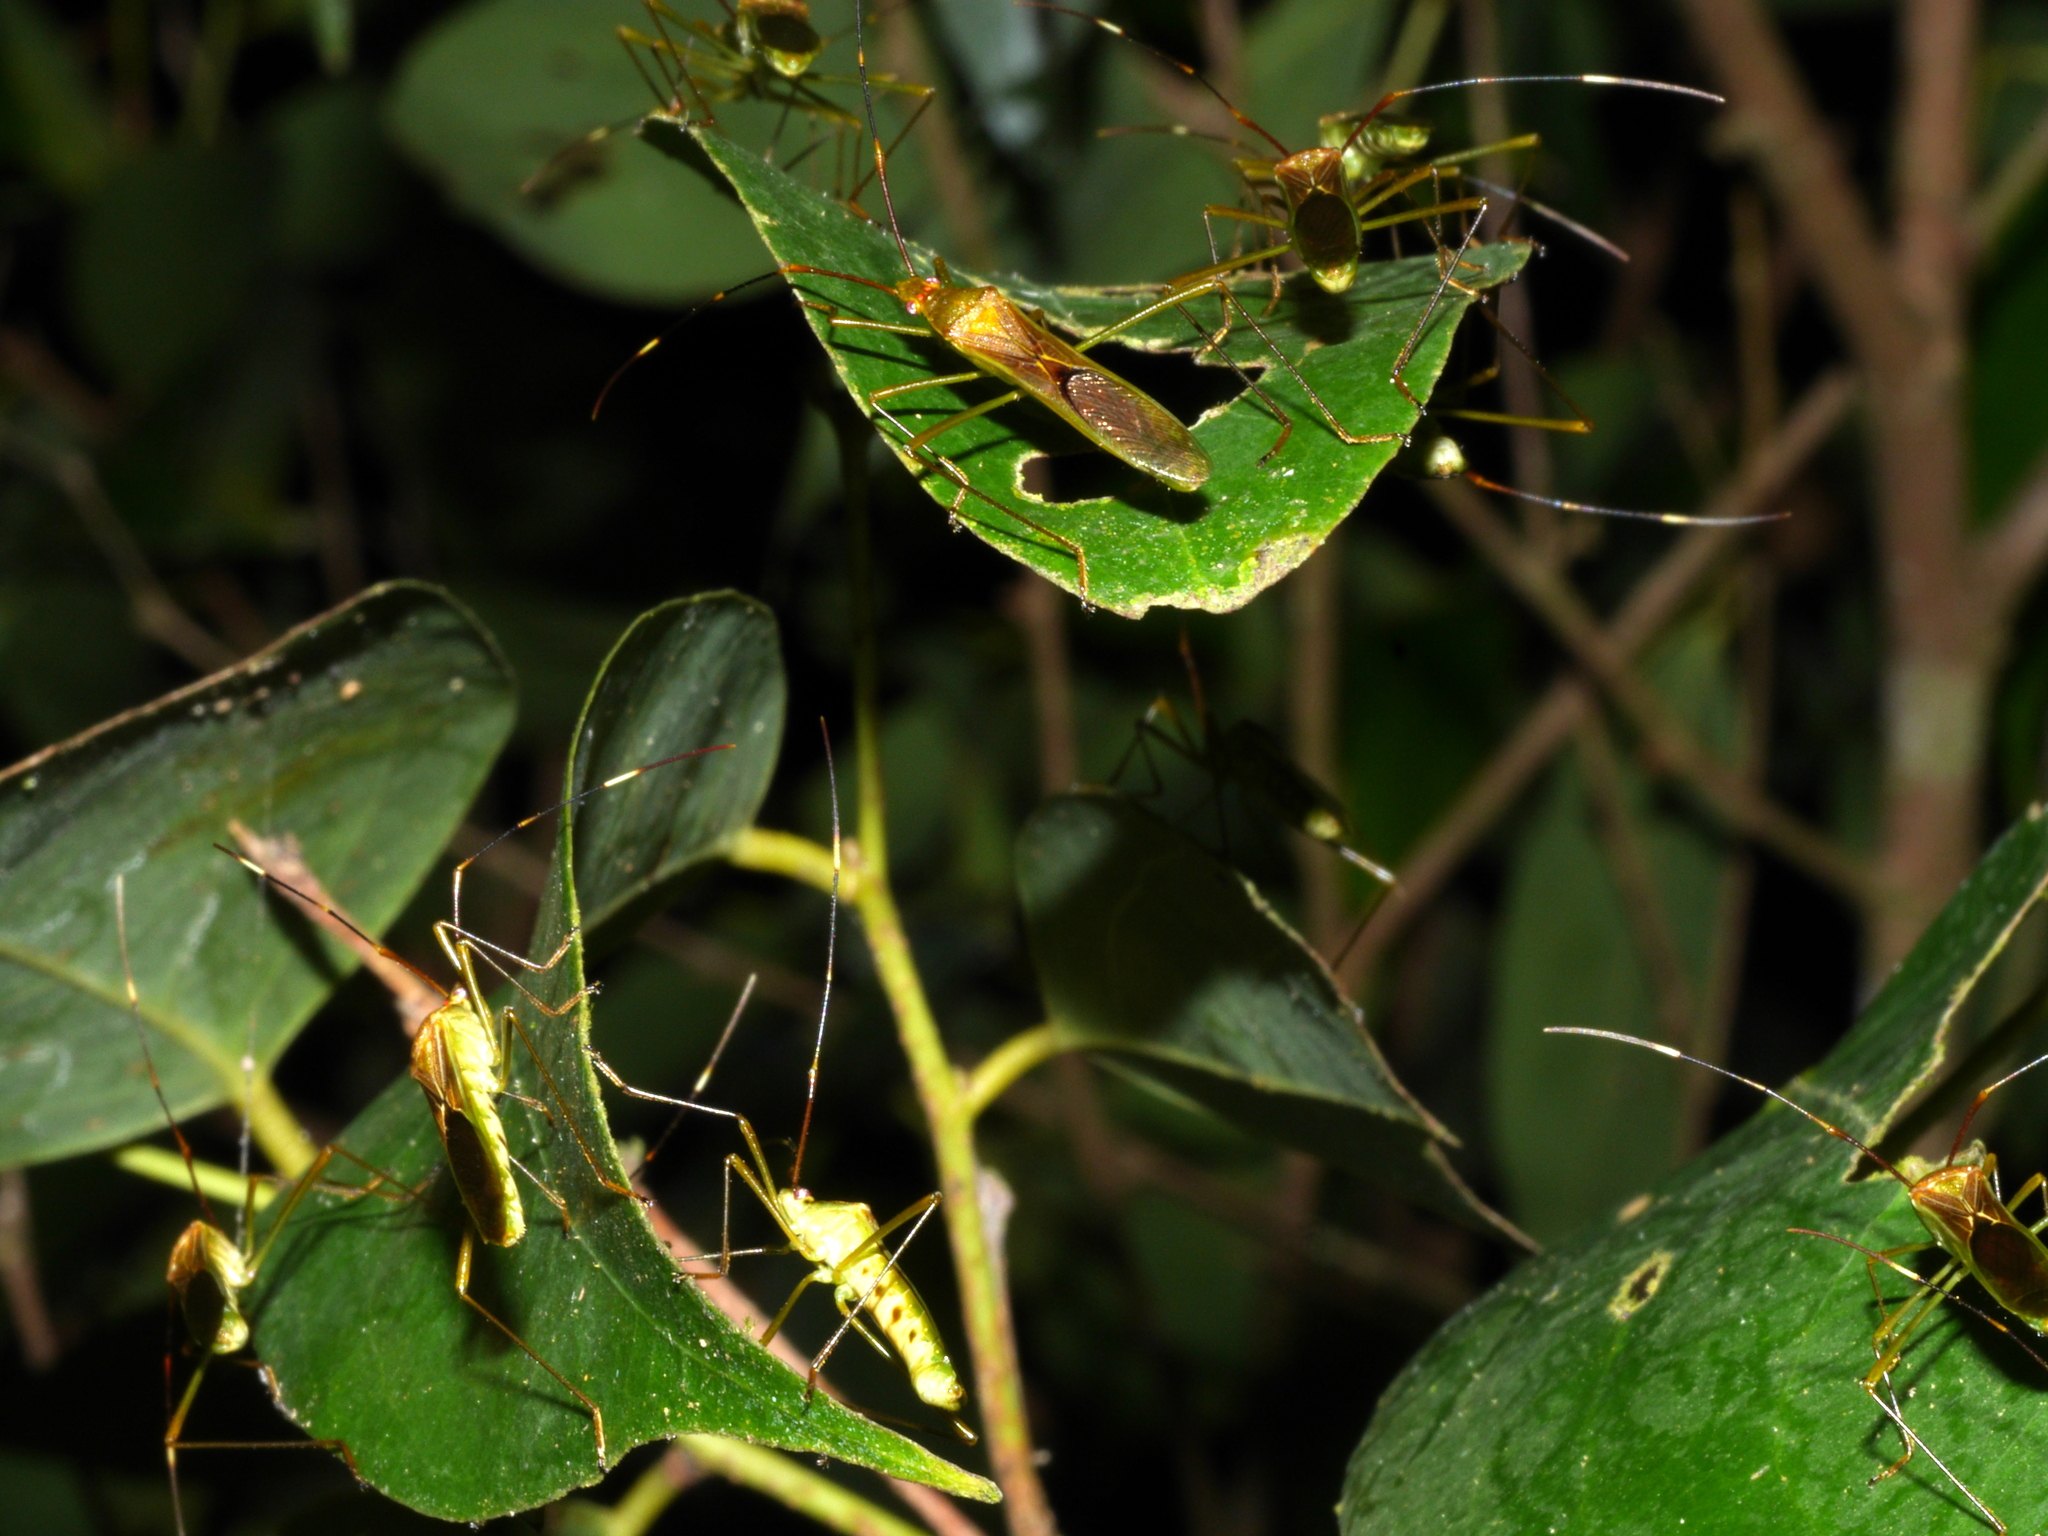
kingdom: Animalia
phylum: Arthropoda
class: Insecta
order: Hemiptera
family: Alydidae
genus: Leptocorisa
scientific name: Leptocorisa oratoria
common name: Rice ear bug
